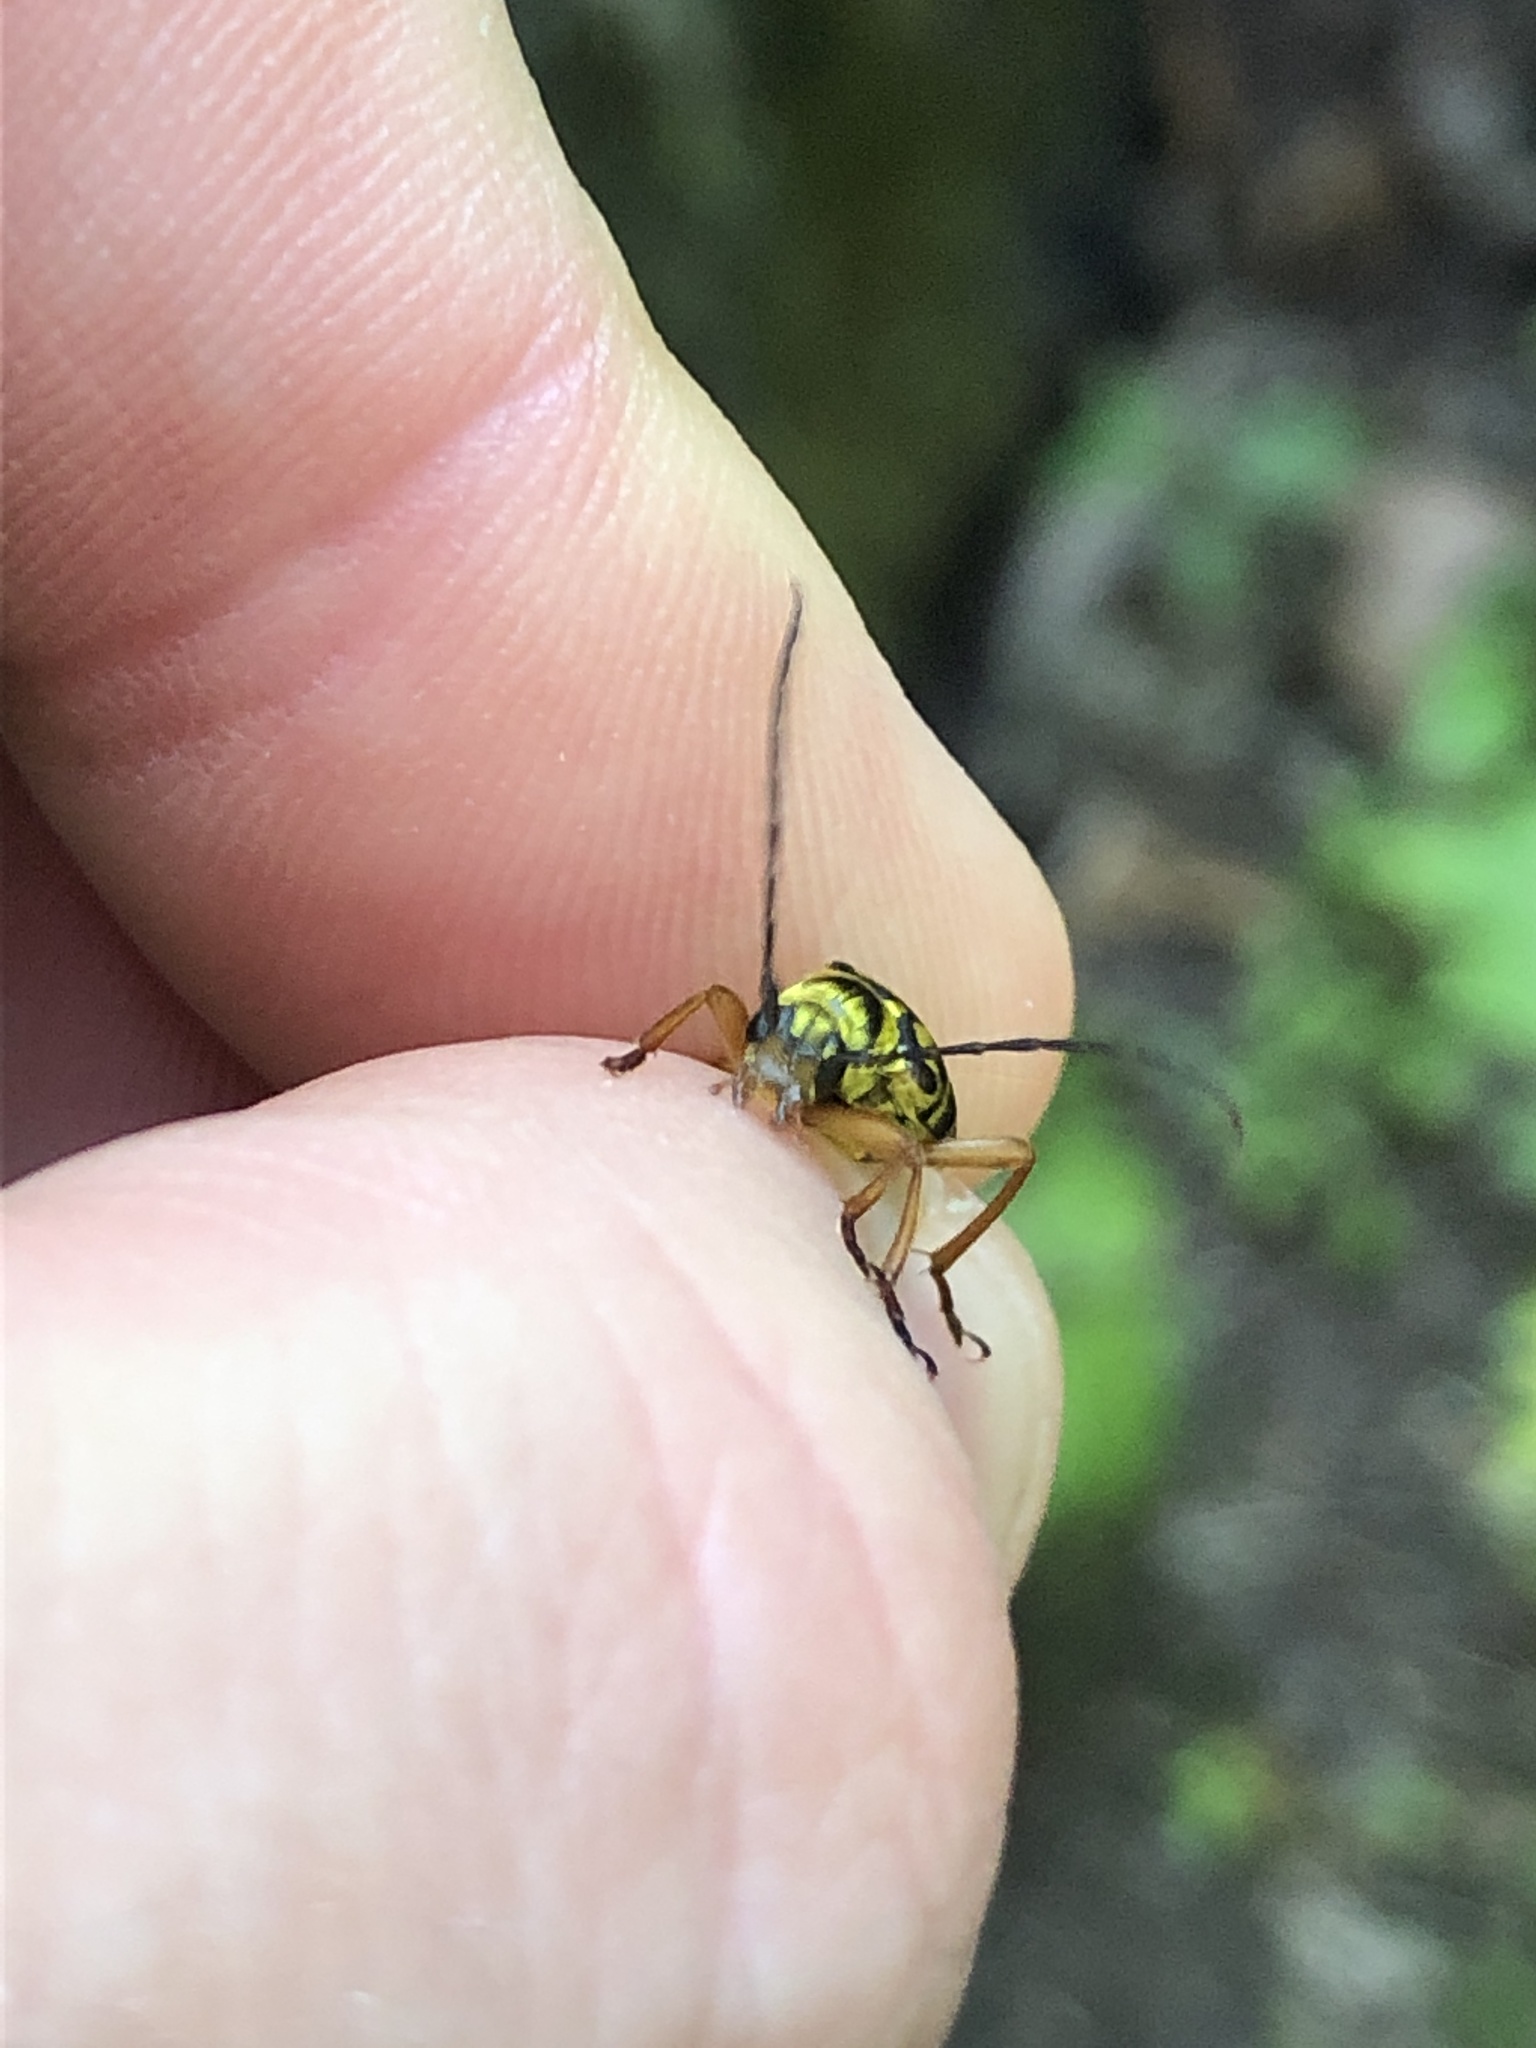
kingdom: Animalia
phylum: Arthropoda
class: Insecta
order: Coleoptera
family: Cerambycidae
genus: Strophiona
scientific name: Strophiona nitens
